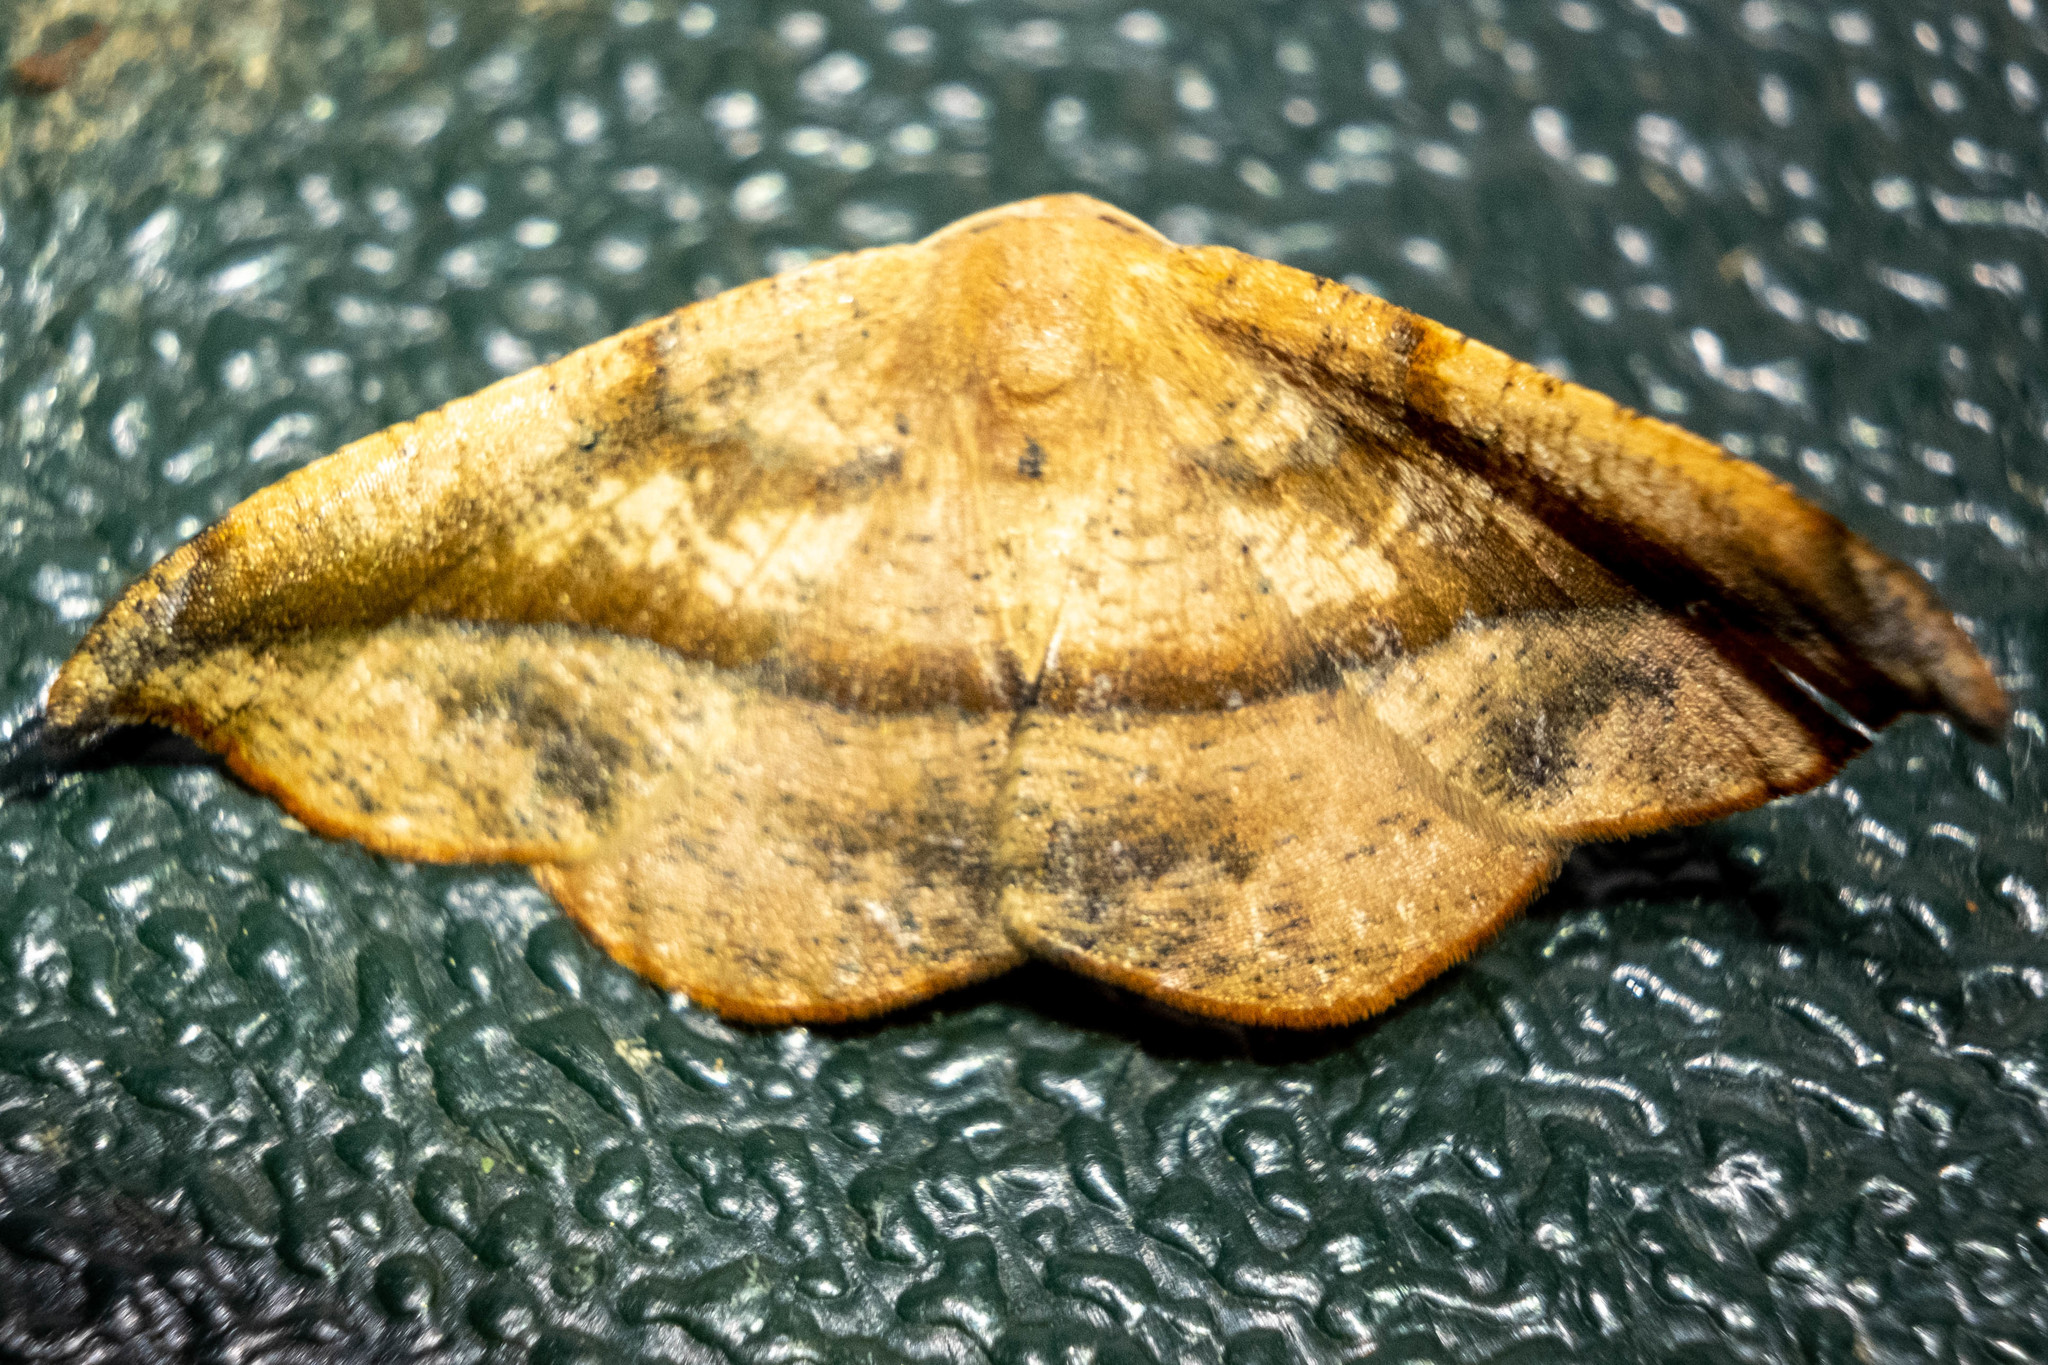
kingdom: Animalia
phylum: Arthropoda
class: Insecta
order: Lepidoptera
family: Geometridae
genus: Patalene
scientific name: Patalene olyzonaria
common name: Juniper geometer moth
